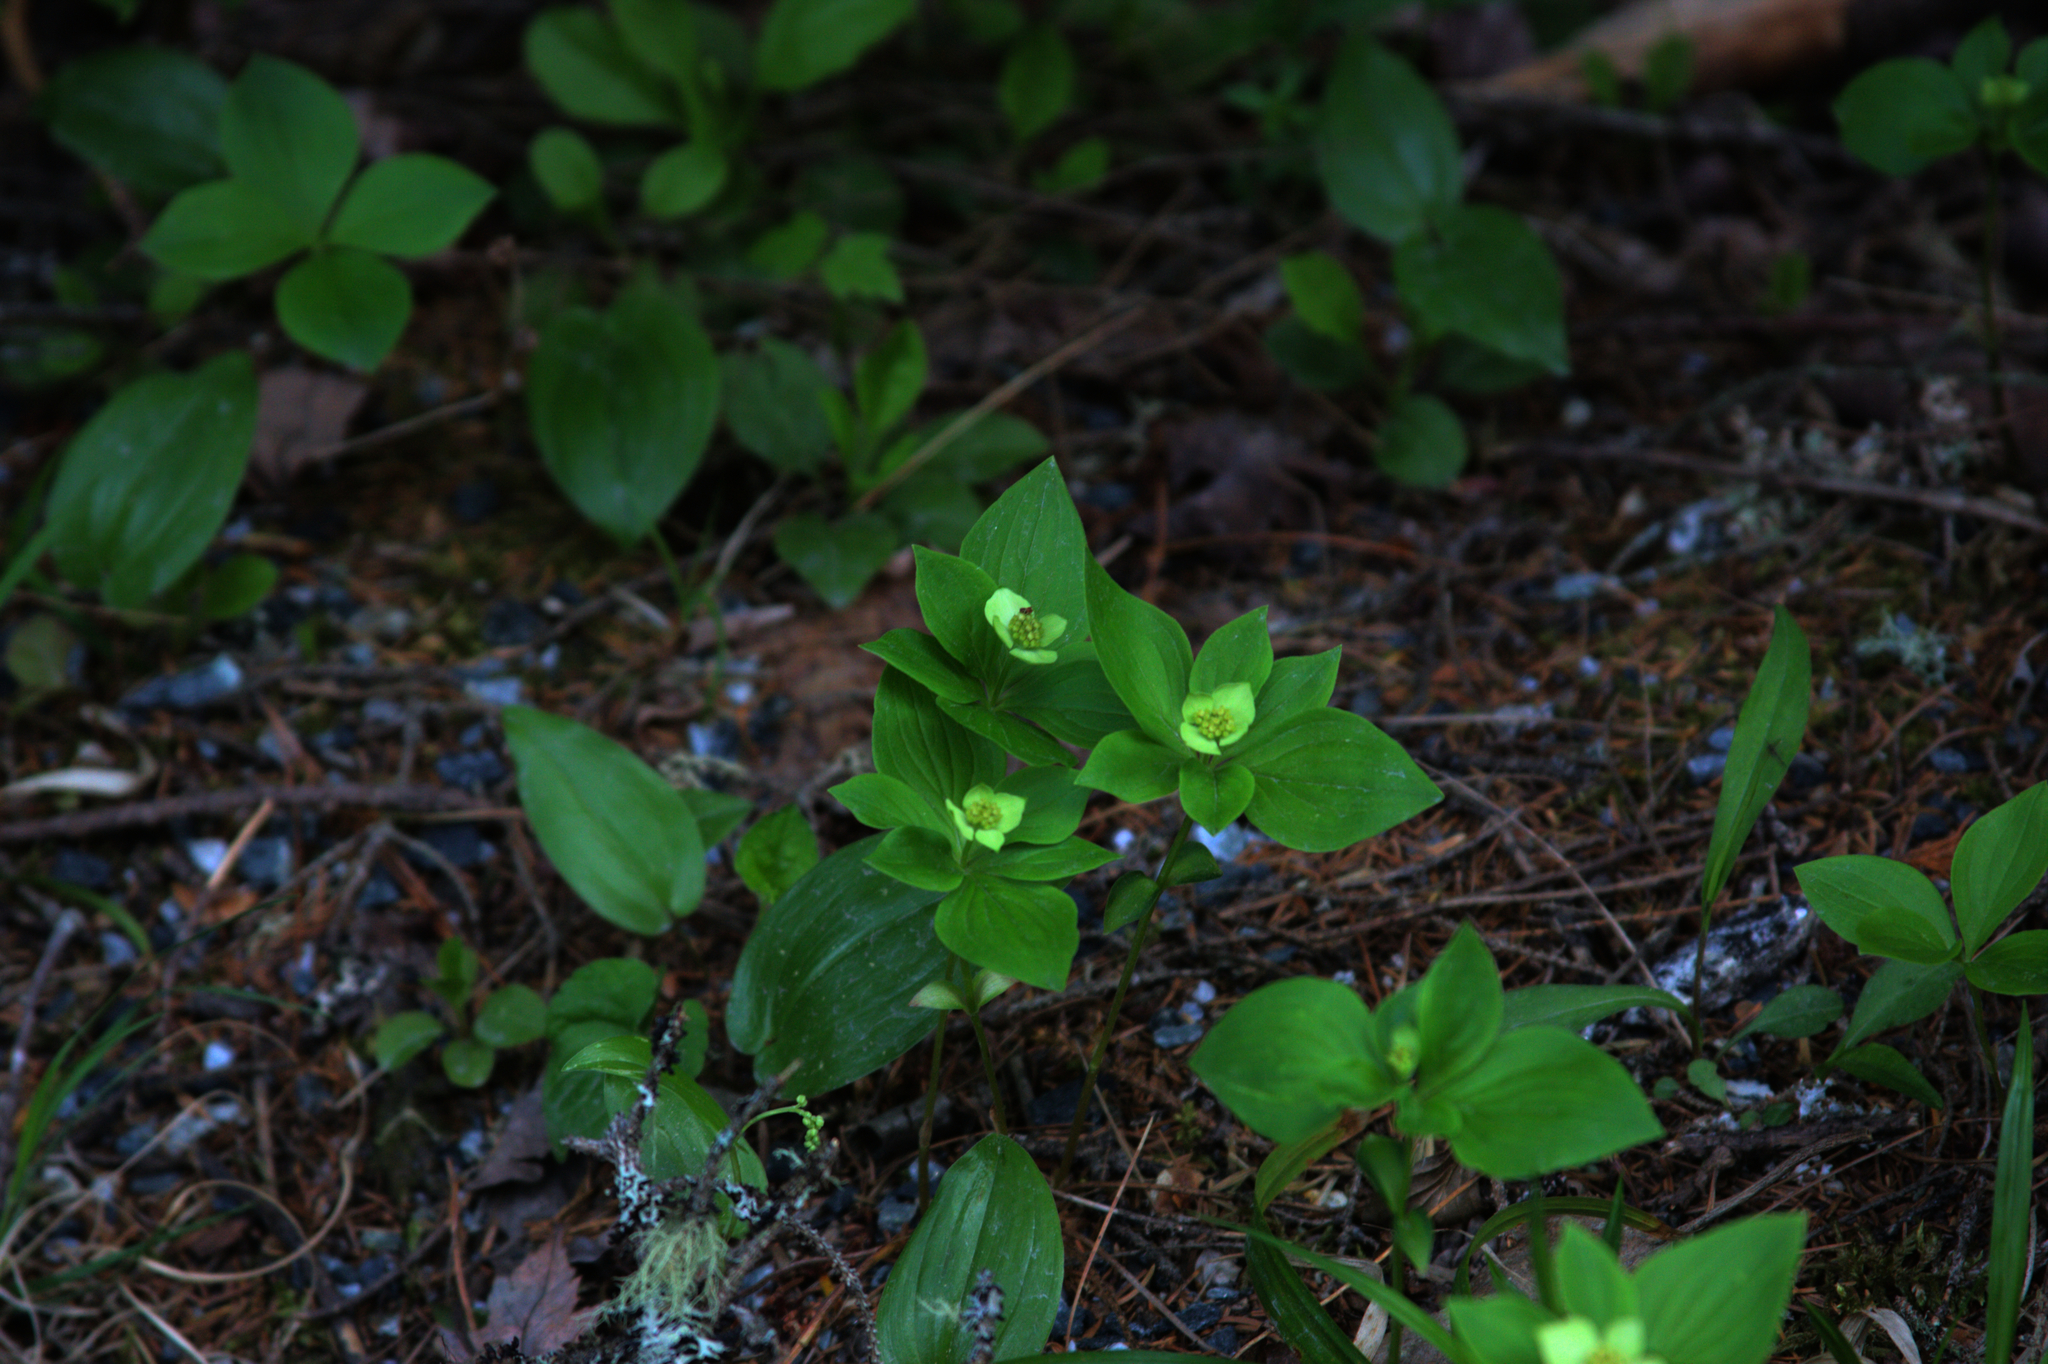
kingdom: Plantae
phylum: Tracheophyta
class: Magnoliopsida
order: Cornales
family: Cornaceae
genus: Cornus
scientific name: Cornus canadensis
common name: Creeping dogwood
